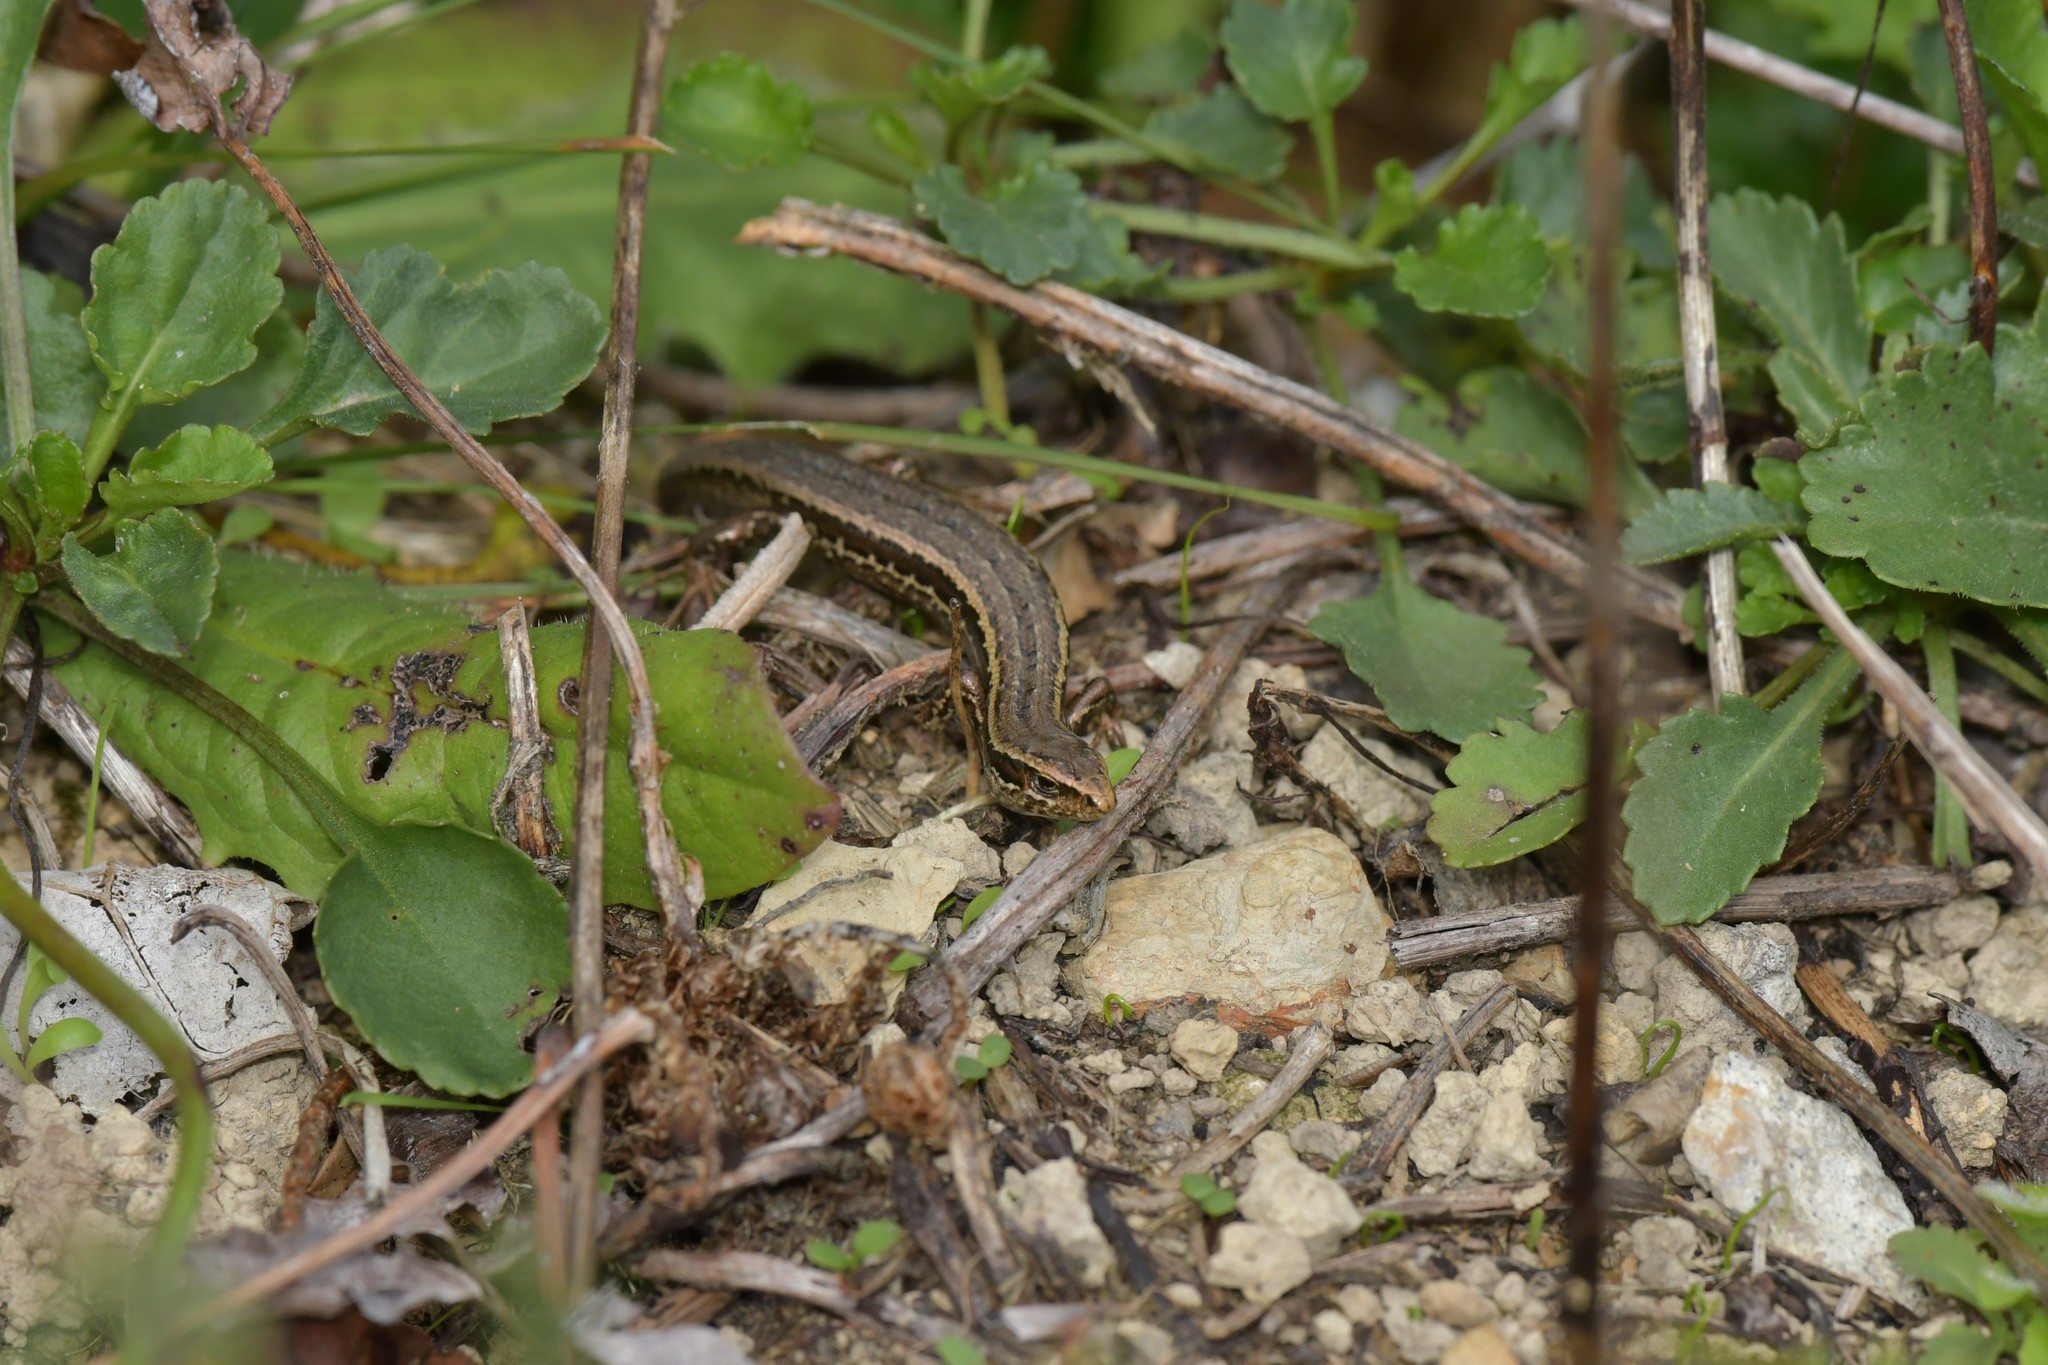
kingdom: Animalia
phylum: Chordata
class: Squamata
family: Scincidae
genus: Oligosoma
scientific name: Oligosoma polychroma
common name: Common new zealand skink
